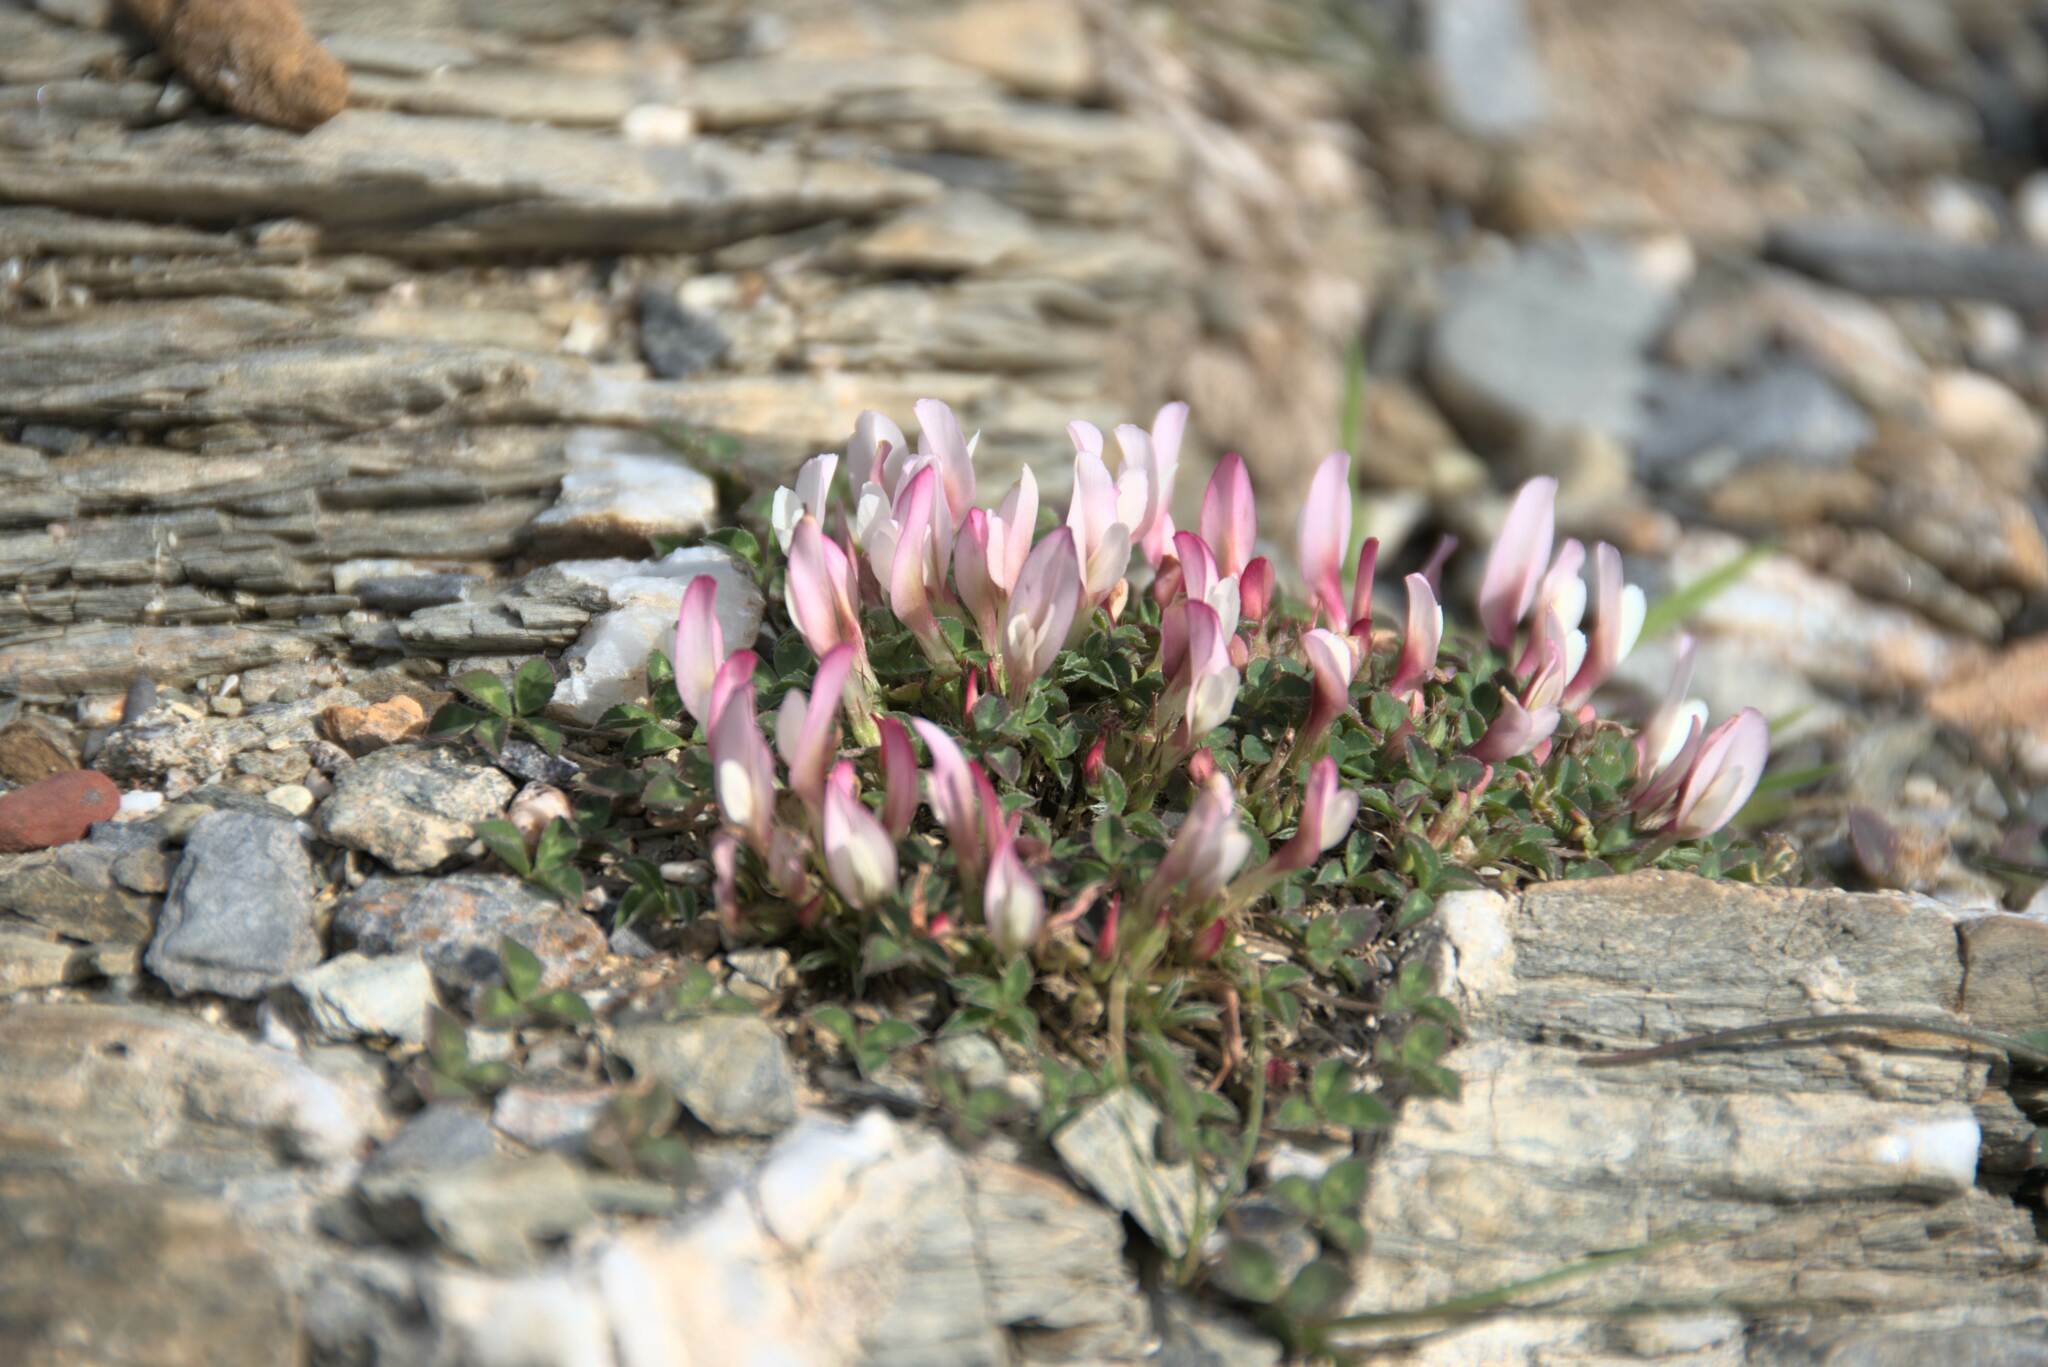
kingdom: Plantae
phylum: Tracheophyta
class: Magnoliopsida
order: Fabales
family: Fabaceae
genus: Trifolium
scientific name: Trifolium uniflorum
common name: One-flower clover
